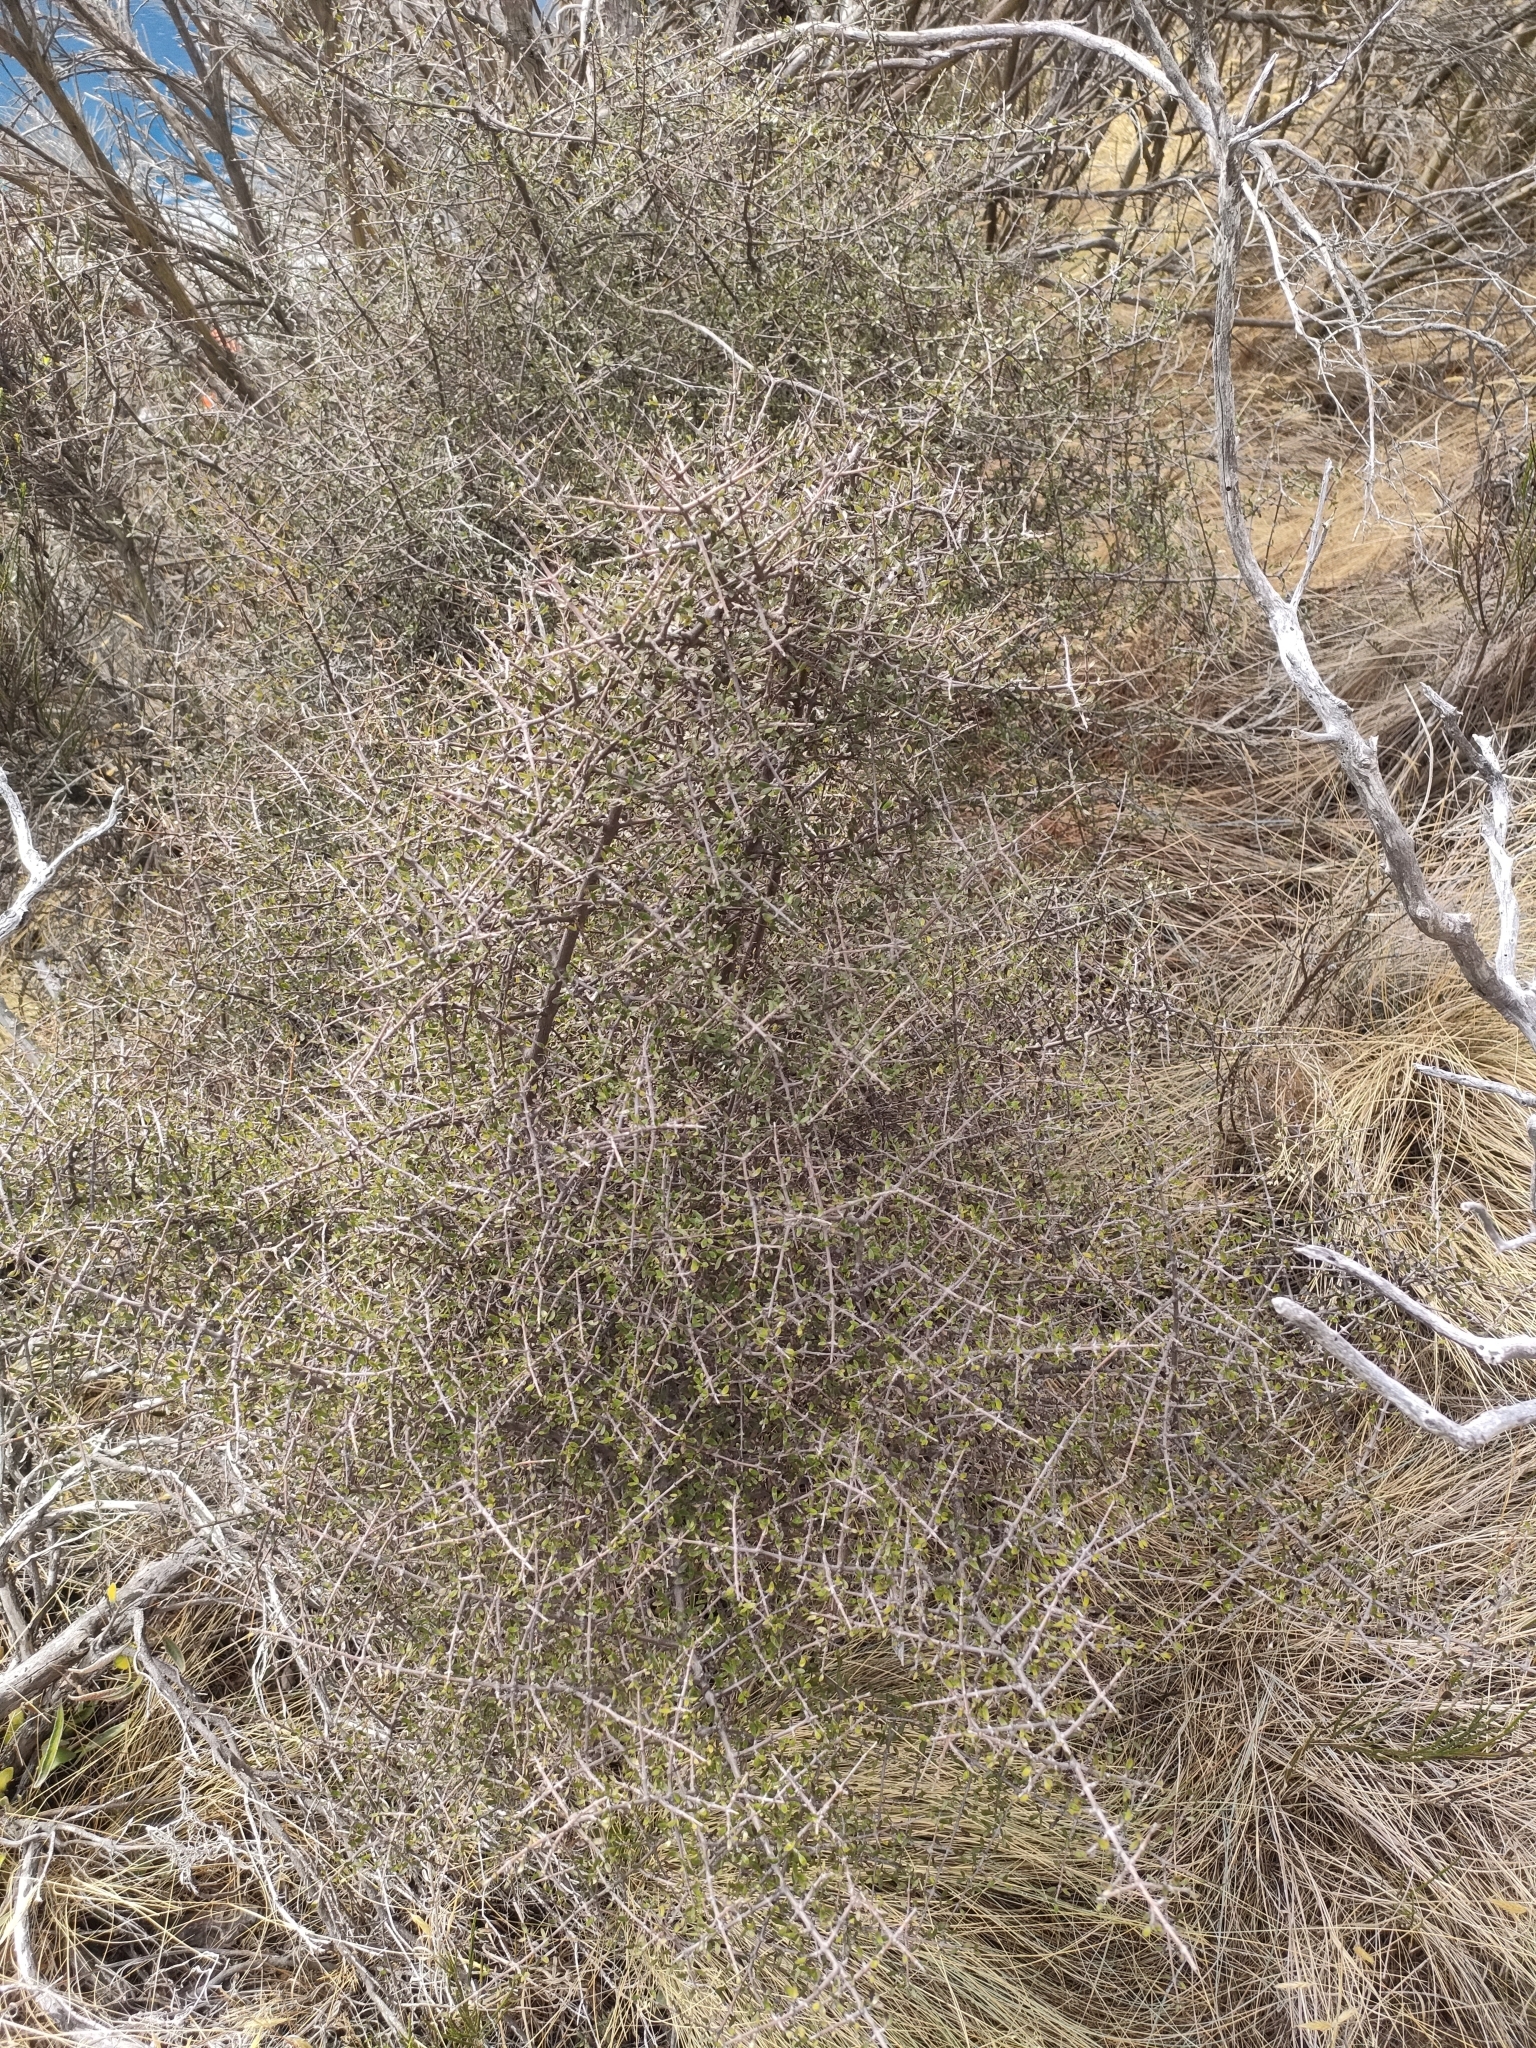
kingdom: Plantae
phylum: Tracheophyta
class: Magnoliopsida
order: Gentianales
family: Rubiaceae
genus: Coprosma
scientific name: Coprosma propinqua
